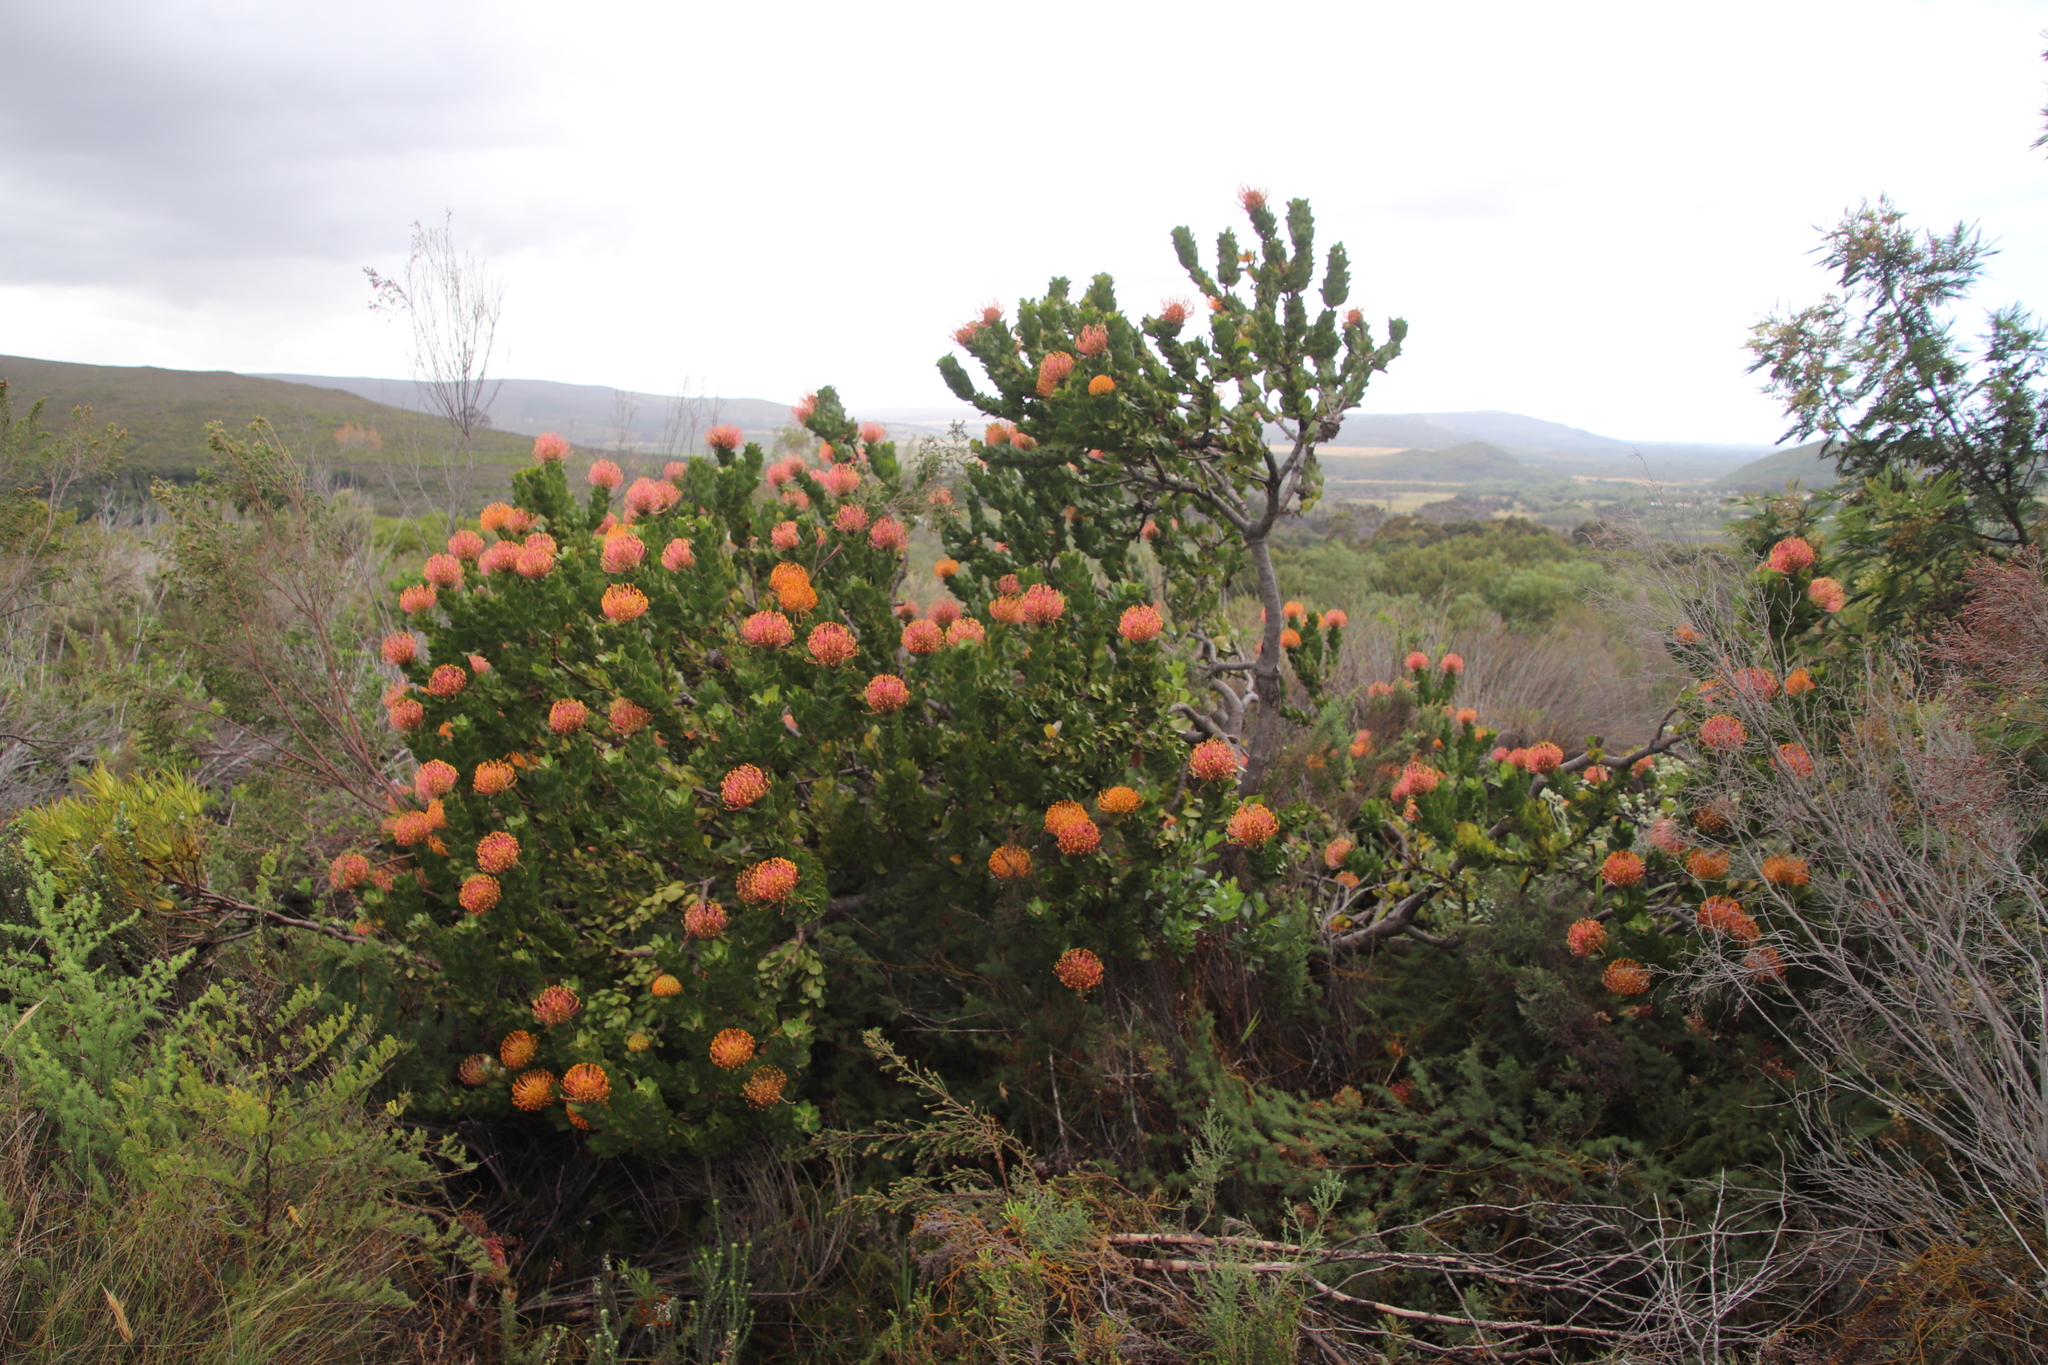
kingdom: Plantae
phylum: Tracheophyta
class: Magnoliopsida
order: Proteales
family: Proteaceae
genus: Leucospermum
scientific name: Leucospermum patersonii
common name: False tree pincushion
